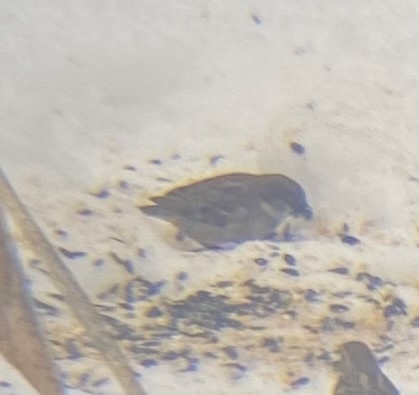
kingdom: Animalia
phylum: Chordata
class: Aves
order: Passeriformes
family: Passeridae
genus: Passer
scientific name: Passer domesticus
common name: House sparrow
